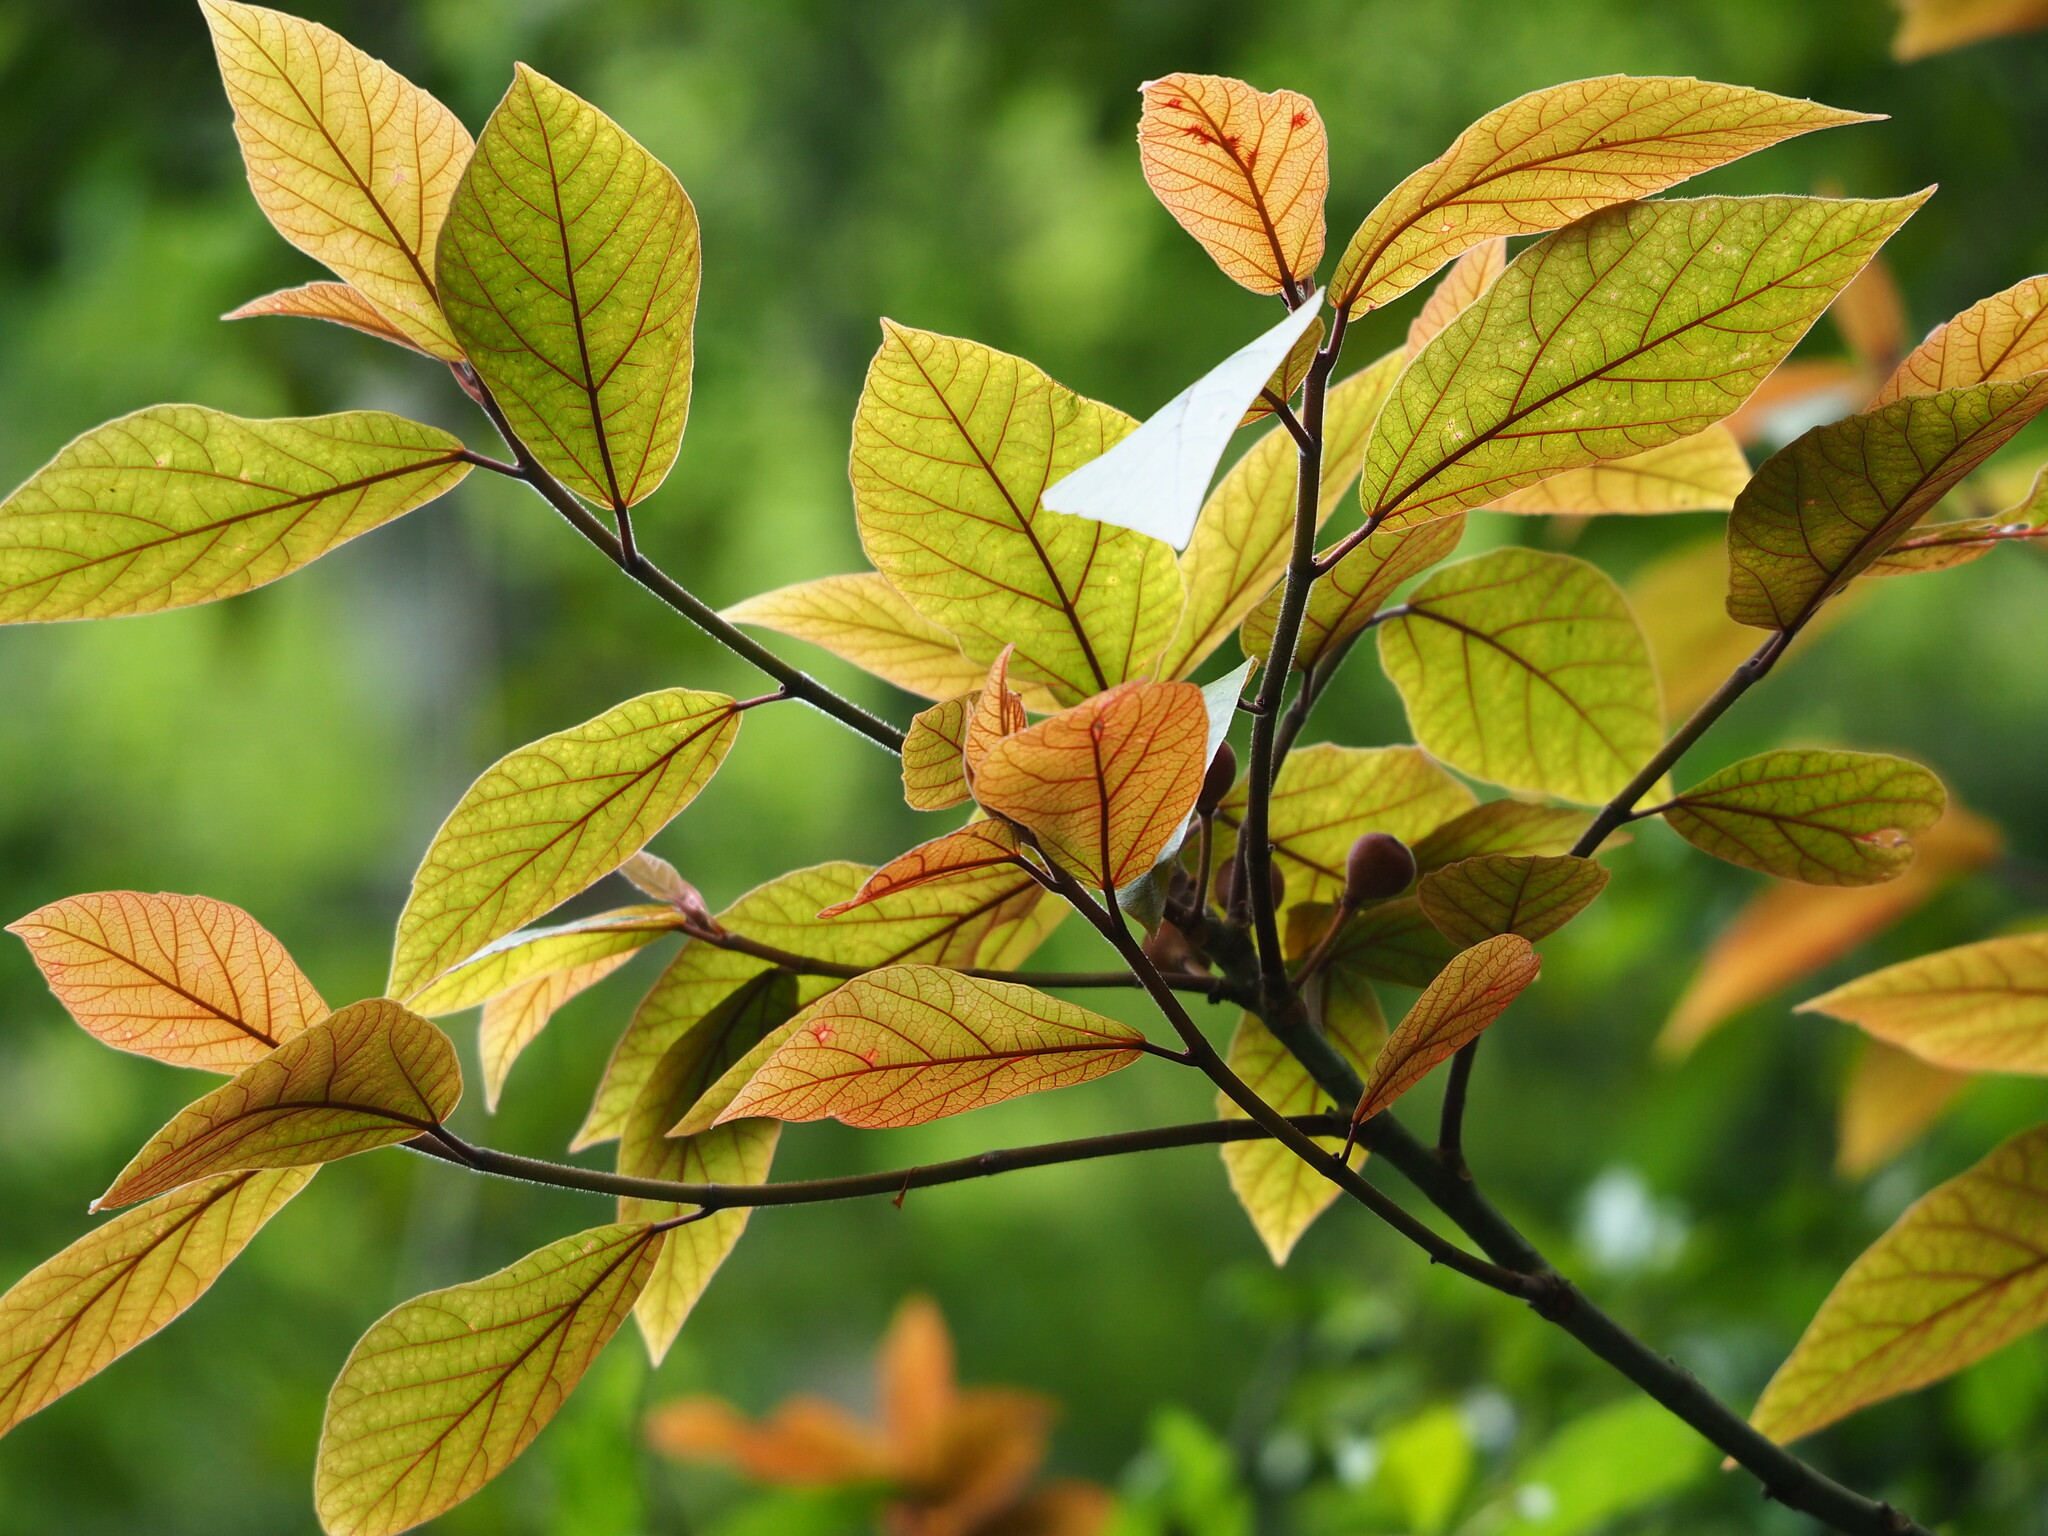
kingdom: Plantae
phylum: Tracheophyta
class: Magnoliopsida
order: Rosales
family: Moraceae
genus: Ficus
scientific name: Ficus erecta
